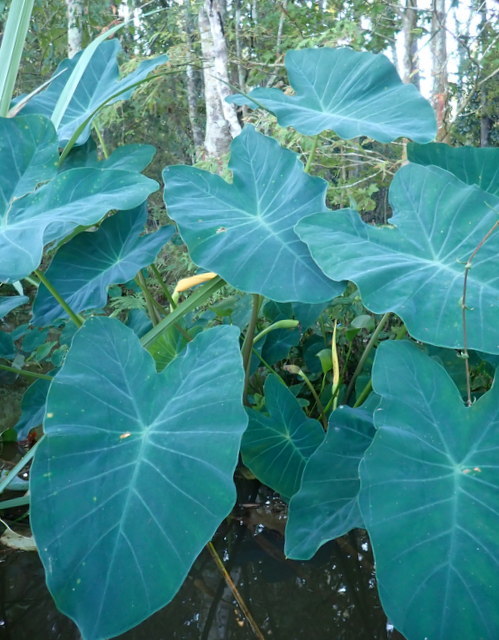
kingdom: Plantae
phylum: Tracheophyta
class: Liliopsida
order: Alismatales
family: Araceae
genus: Colocasia
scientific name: Colocasia esculenta
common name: Taro
